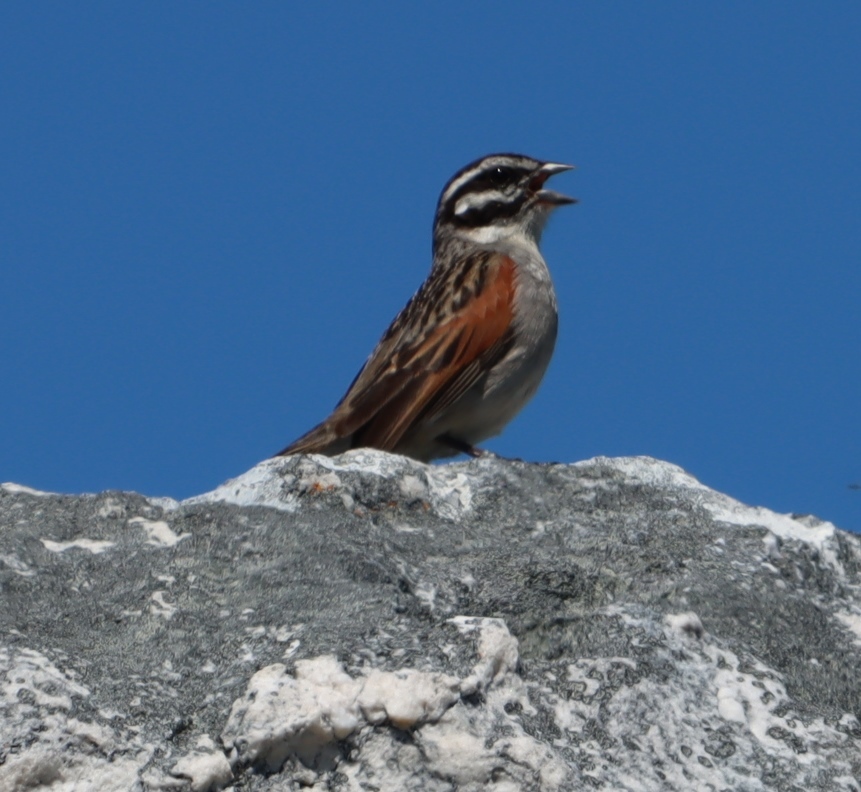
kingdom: Animalia
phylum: Chordata
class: Aves
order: Passeriformes
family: Emberizidae
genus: Emberiza
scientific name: Emberiza capensis
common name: Cape bunting
